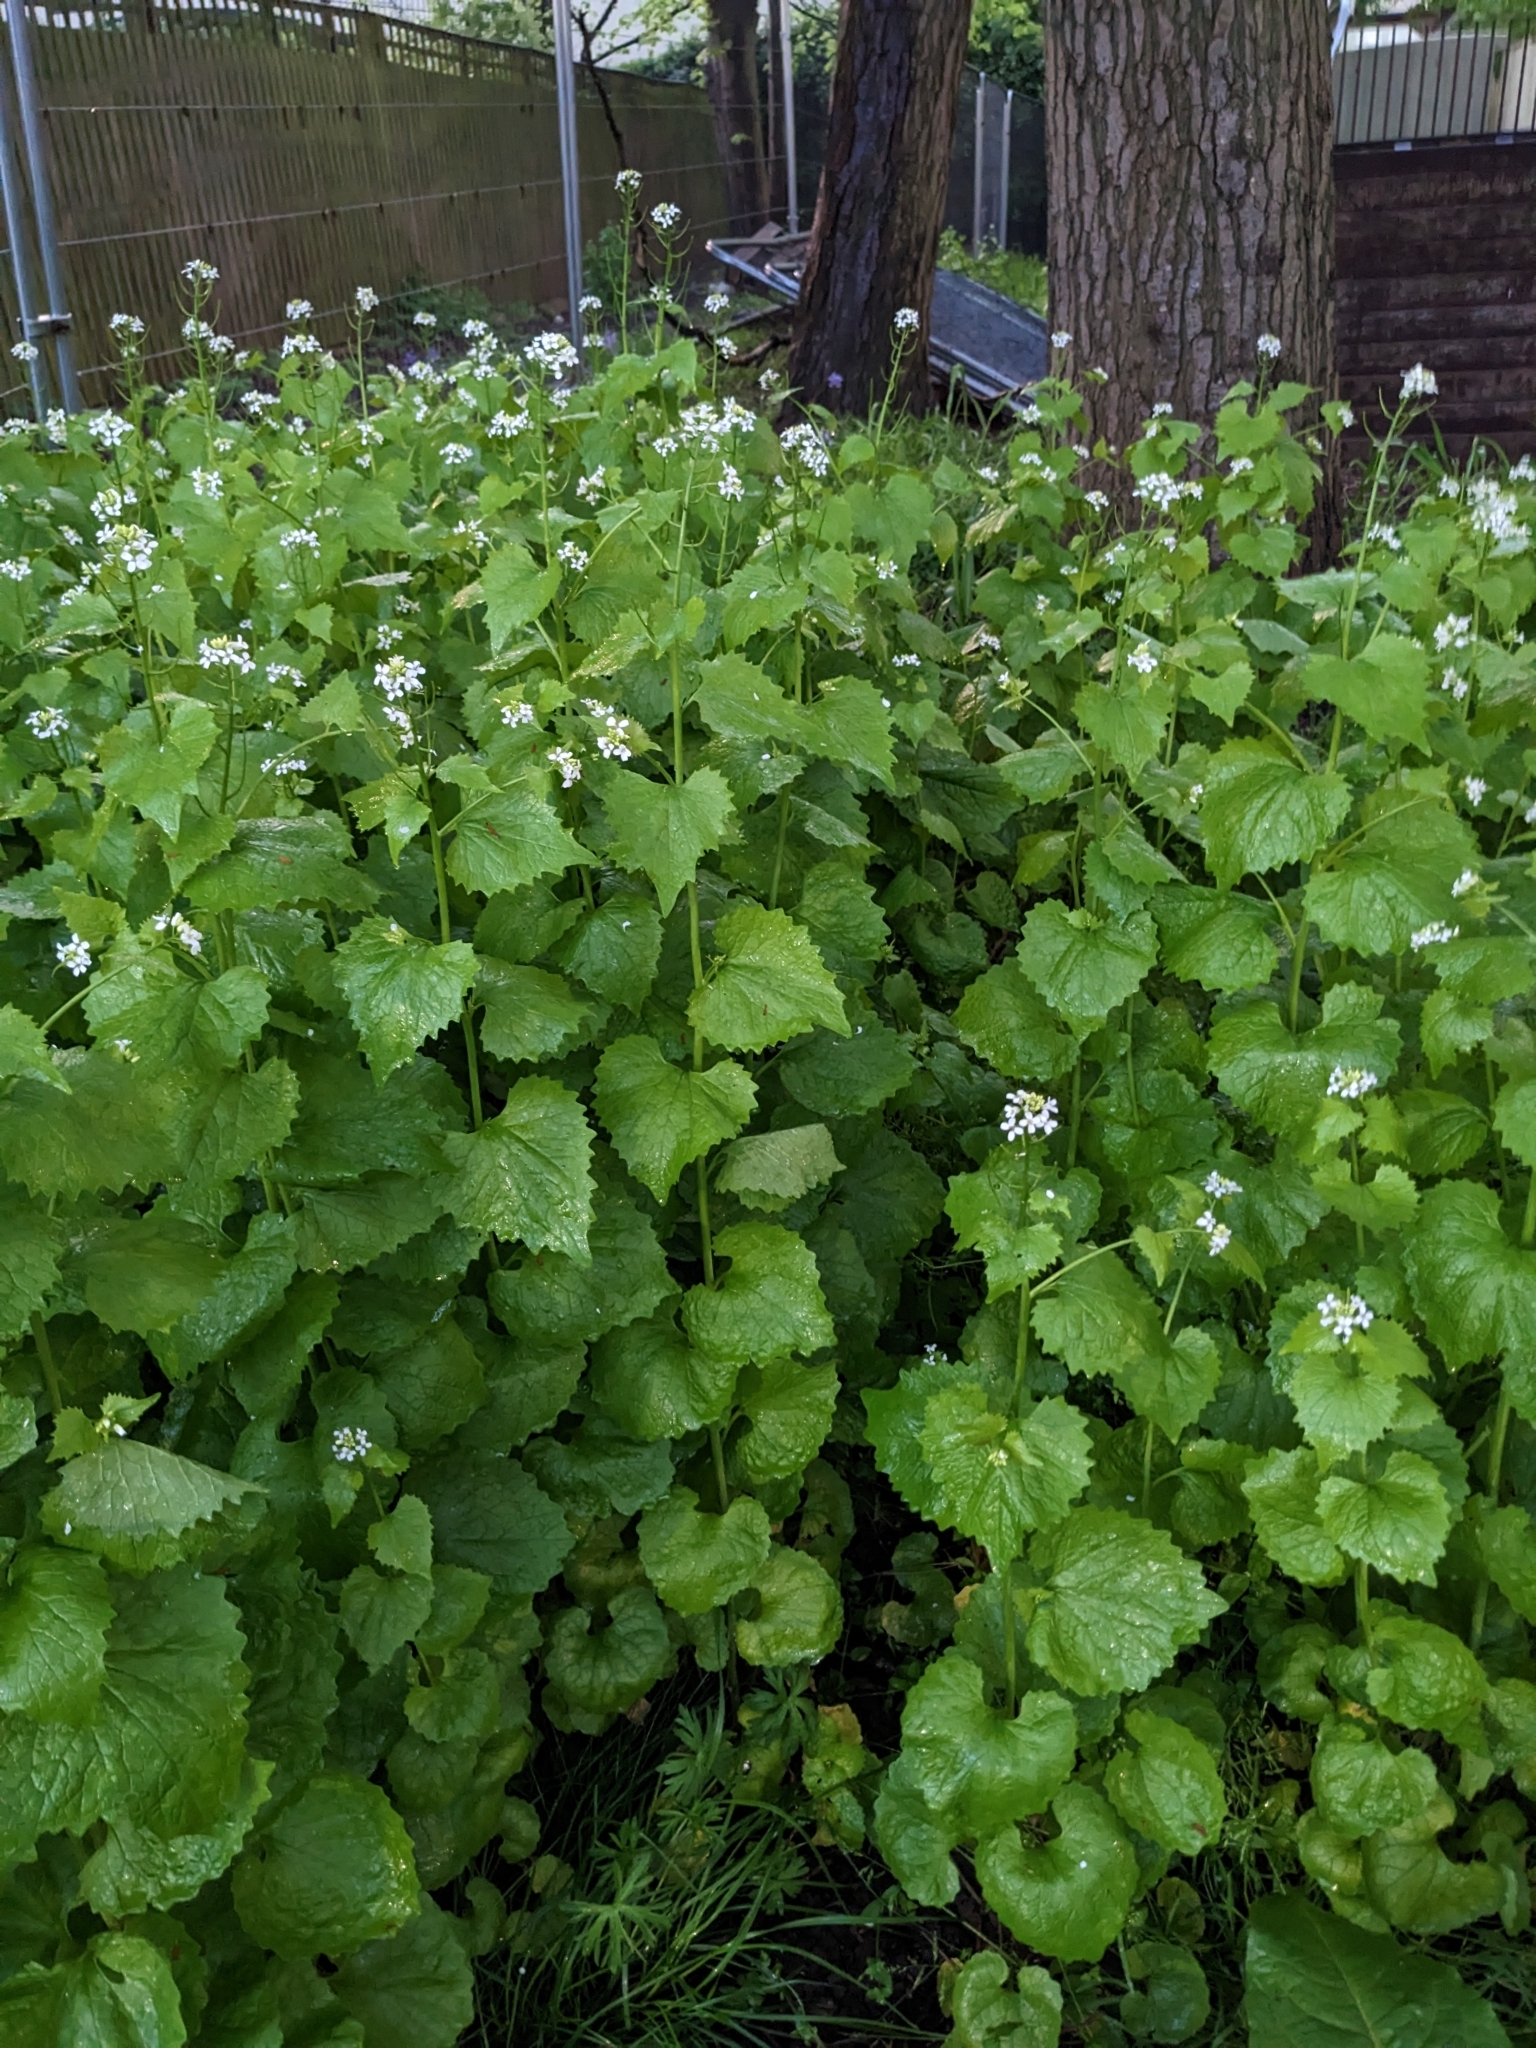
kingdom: Plantae
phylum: Tracheophyta
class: Magnoliopsida
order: Brassicales
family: Brassicaceae
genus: Alliaria
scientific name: Alliaria petiolata
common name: Garlic mustard
